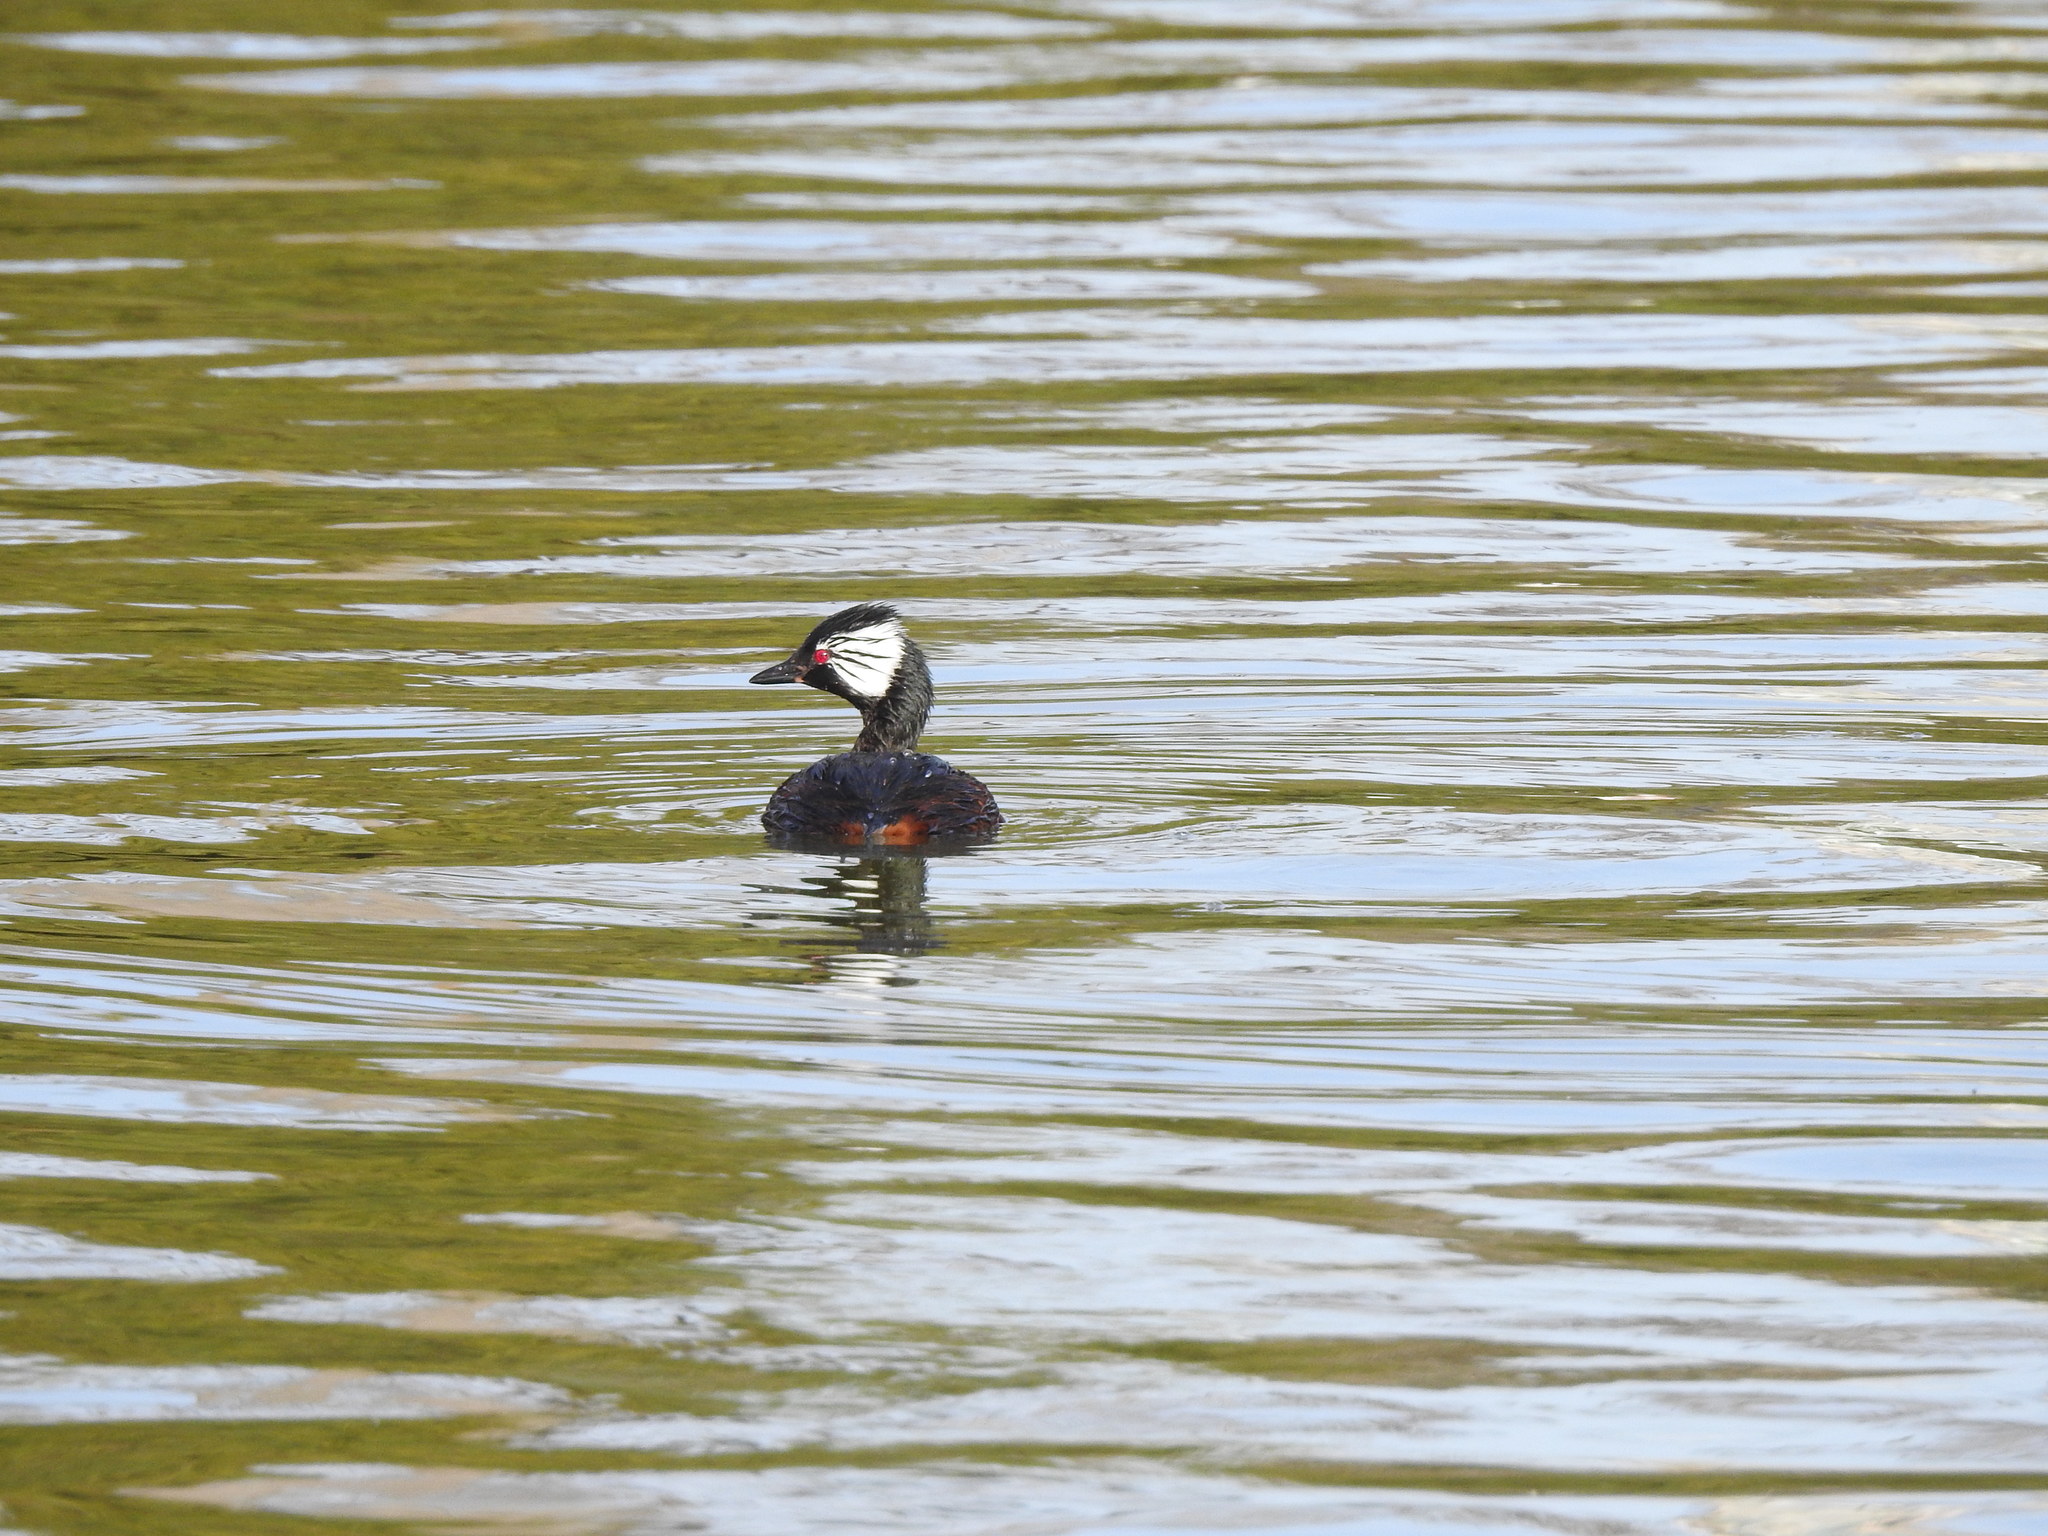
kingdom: Animalia
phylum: Chordata
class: Aves
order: Podicipediformes
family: Podicipedidae
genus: Rollandia
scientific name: Rollandia rolland
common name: White-tufted grebe
